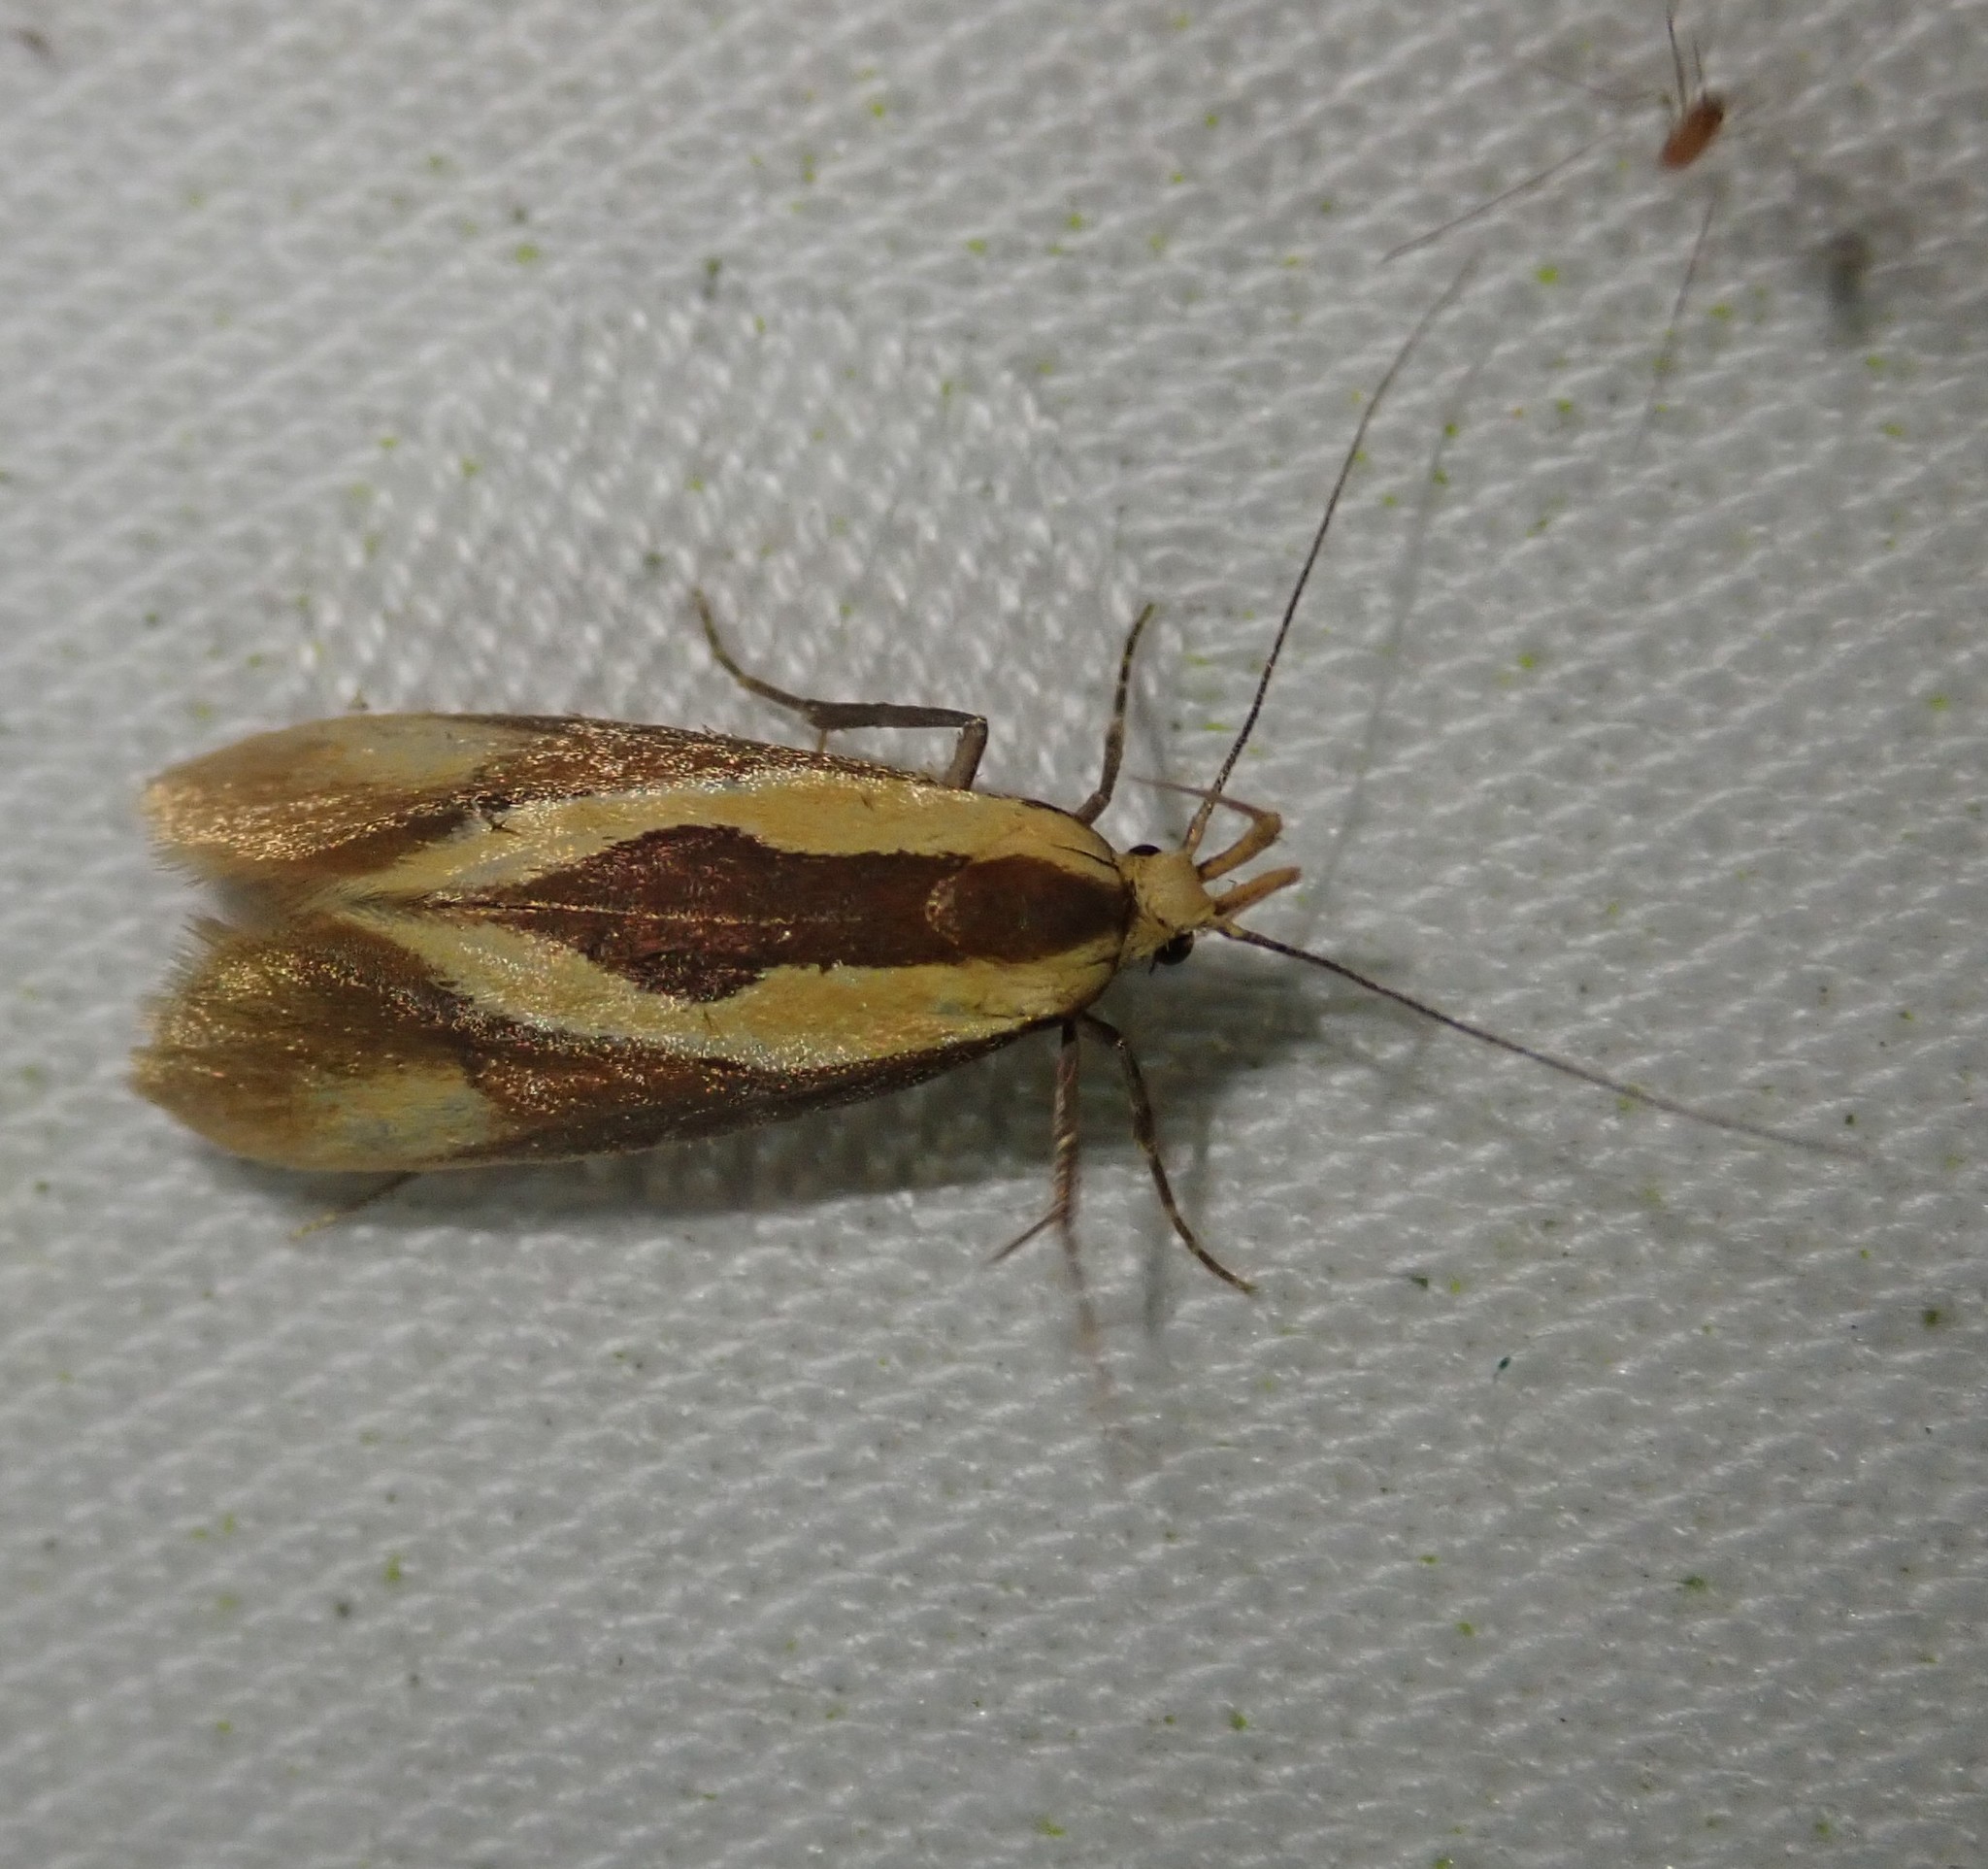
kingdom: Animalia
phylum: Arthropoda
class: Insecta
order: Lepidoptera
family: Oecophoridae
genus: Harpella
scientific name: Harpella forficella
